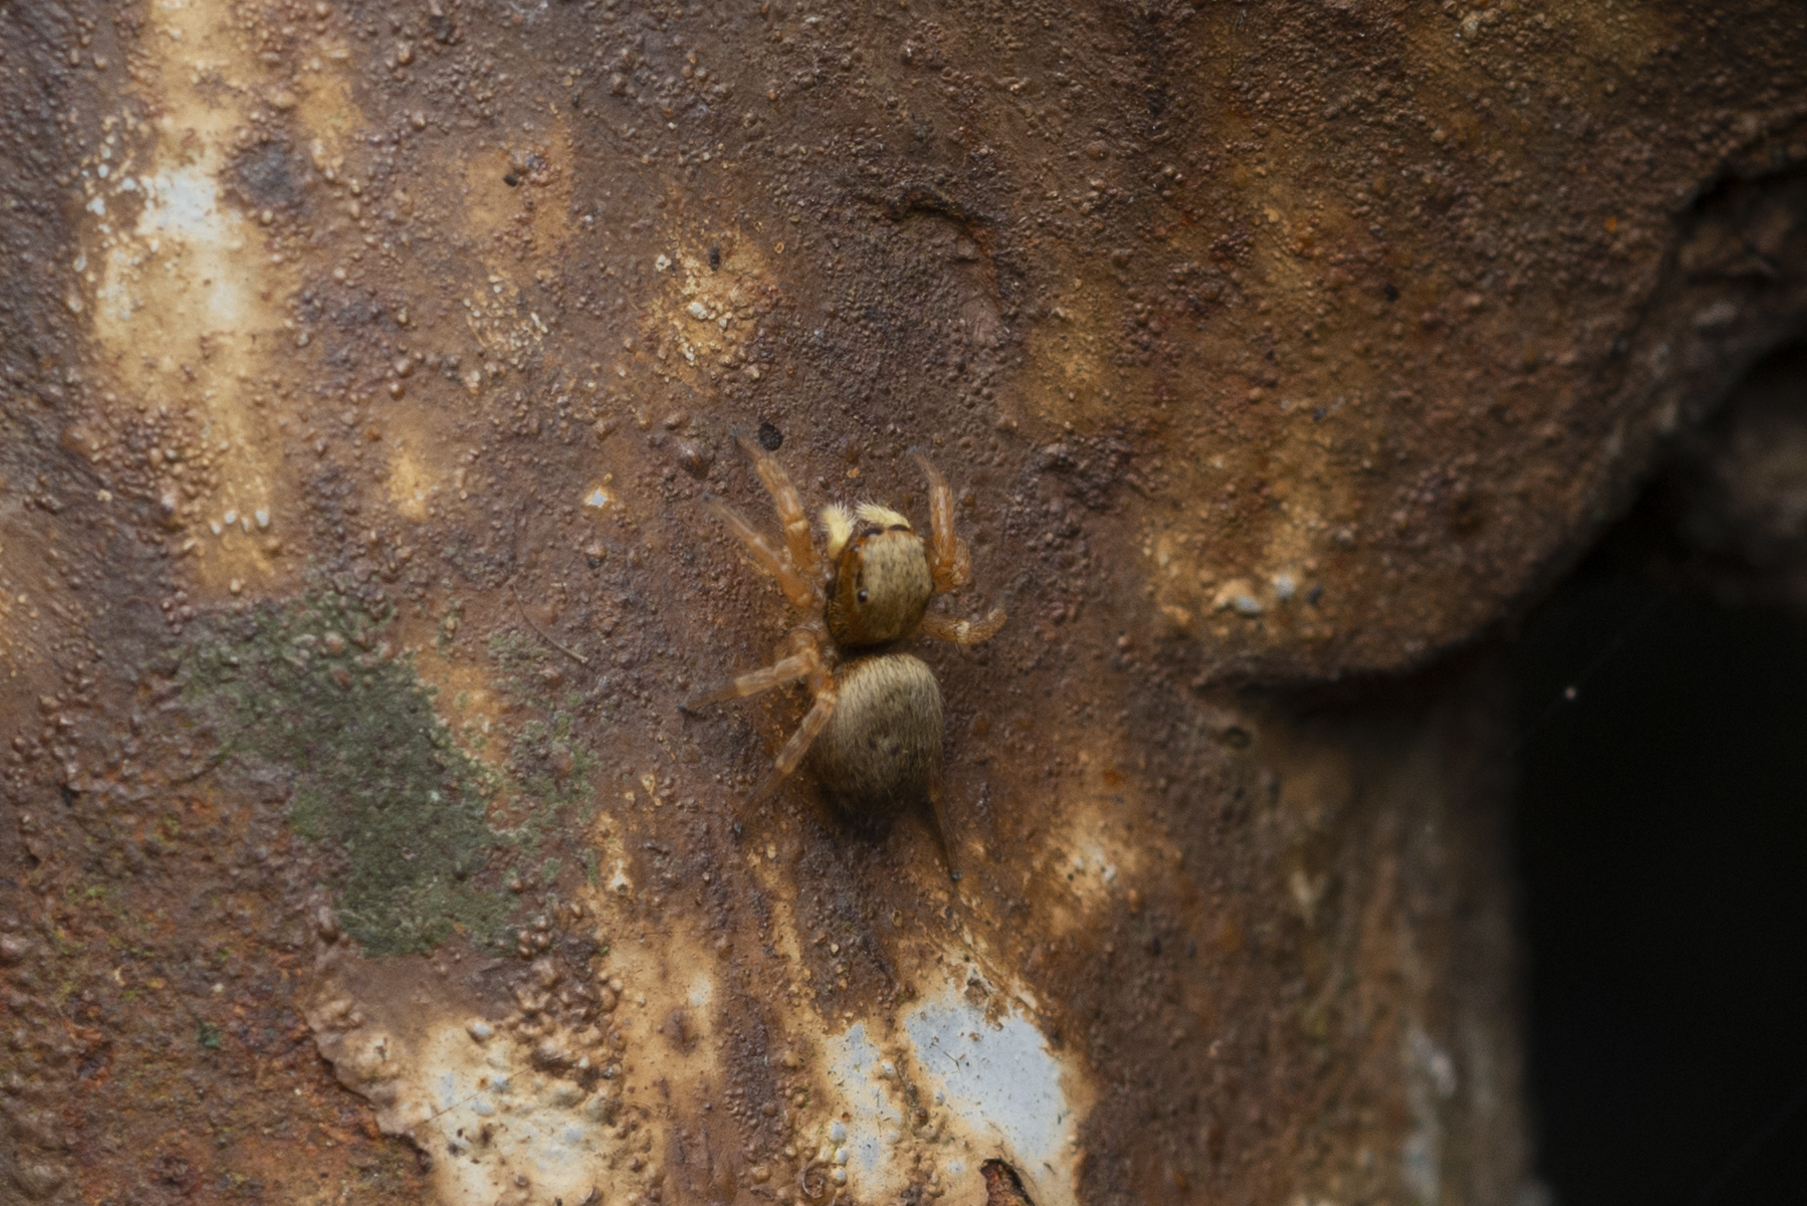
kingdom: Animalia
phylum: Arthropoda
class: Arachnida
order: Araneae
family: Salticidae
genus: Carrhotus
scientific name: Carrhotus sannio
